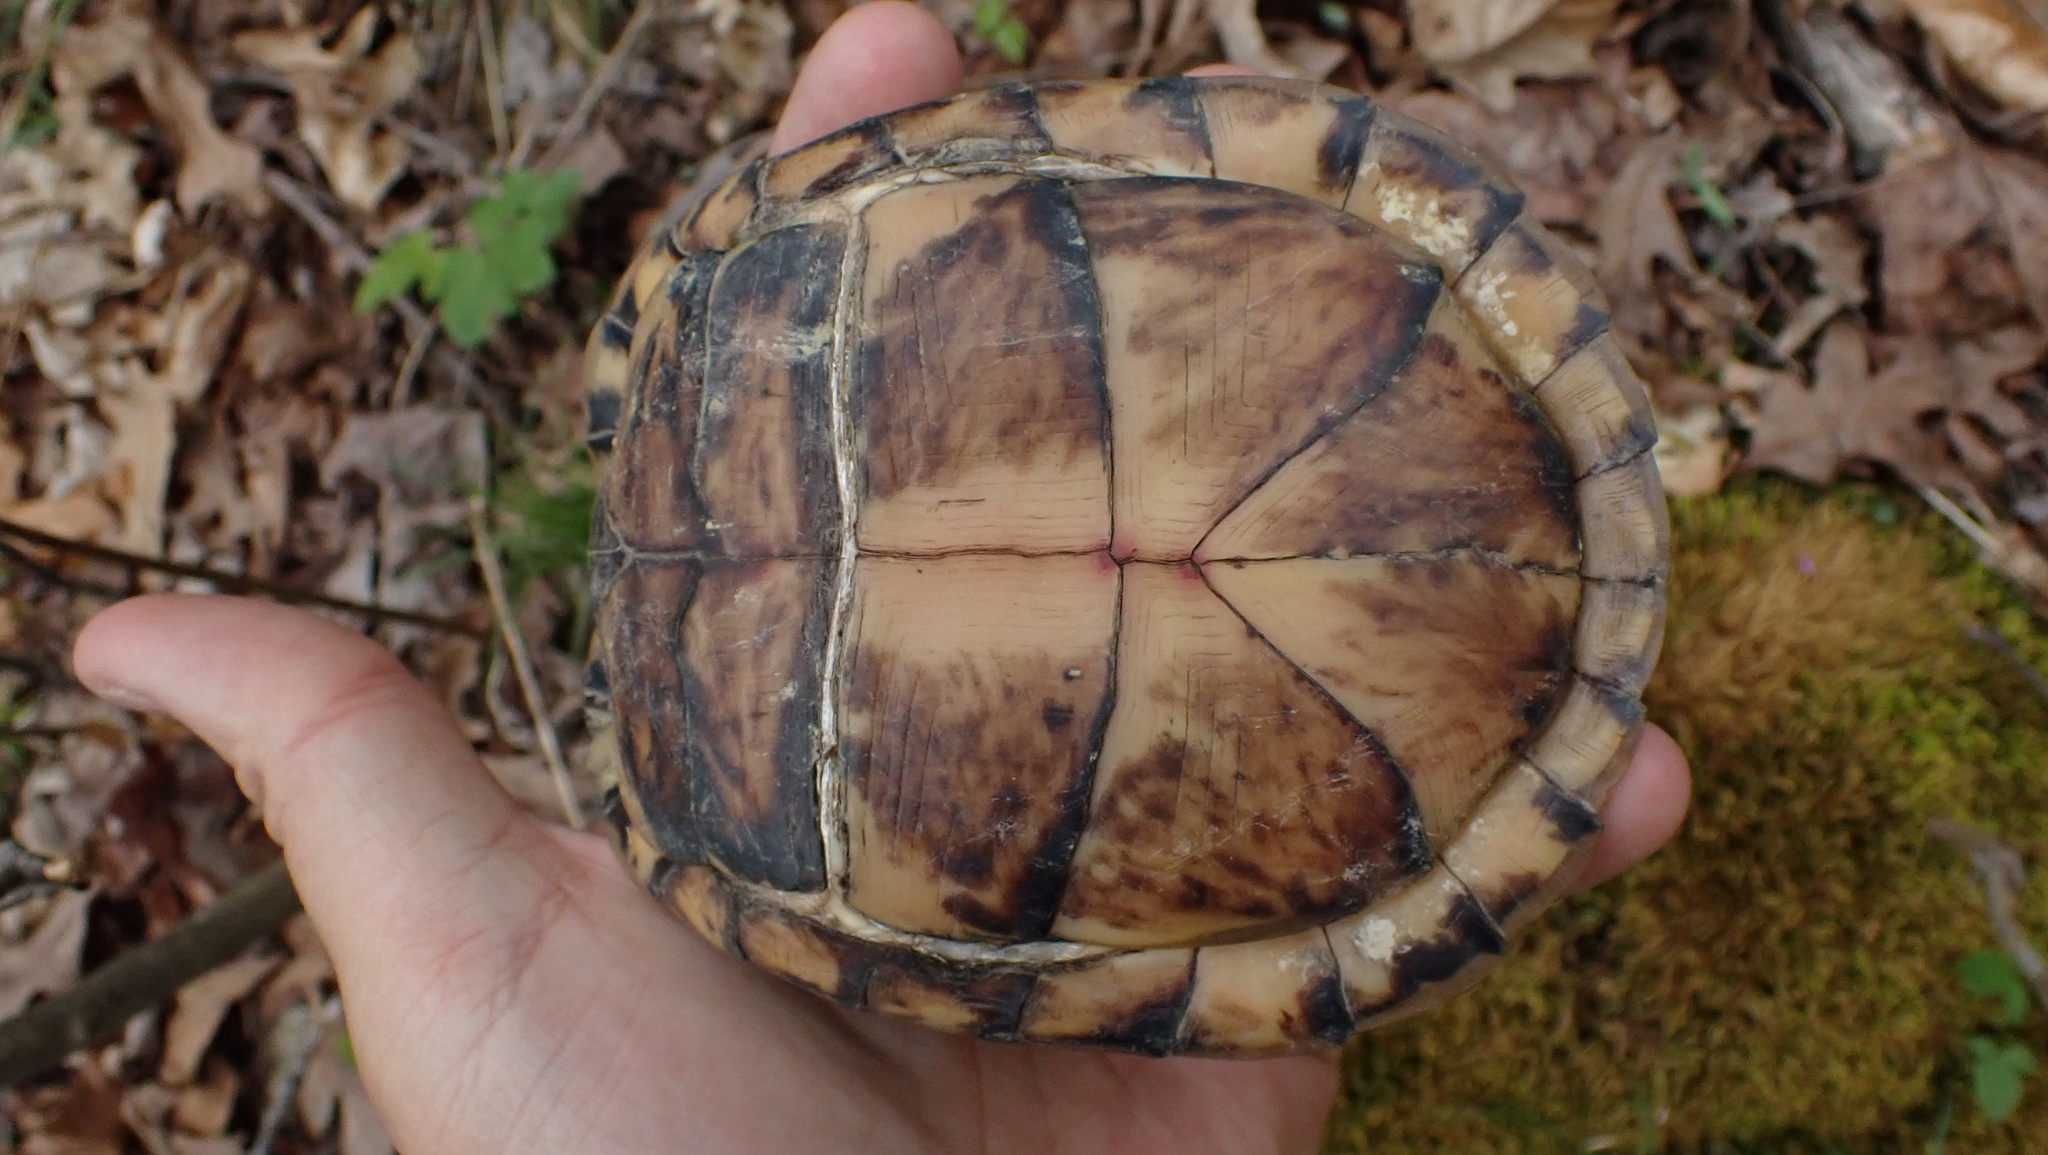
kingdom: Animalia
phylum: Chordata
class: Testudines
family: Emydidae
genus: Terrapene
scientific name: Terrapene carolina
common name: Common box turtle
